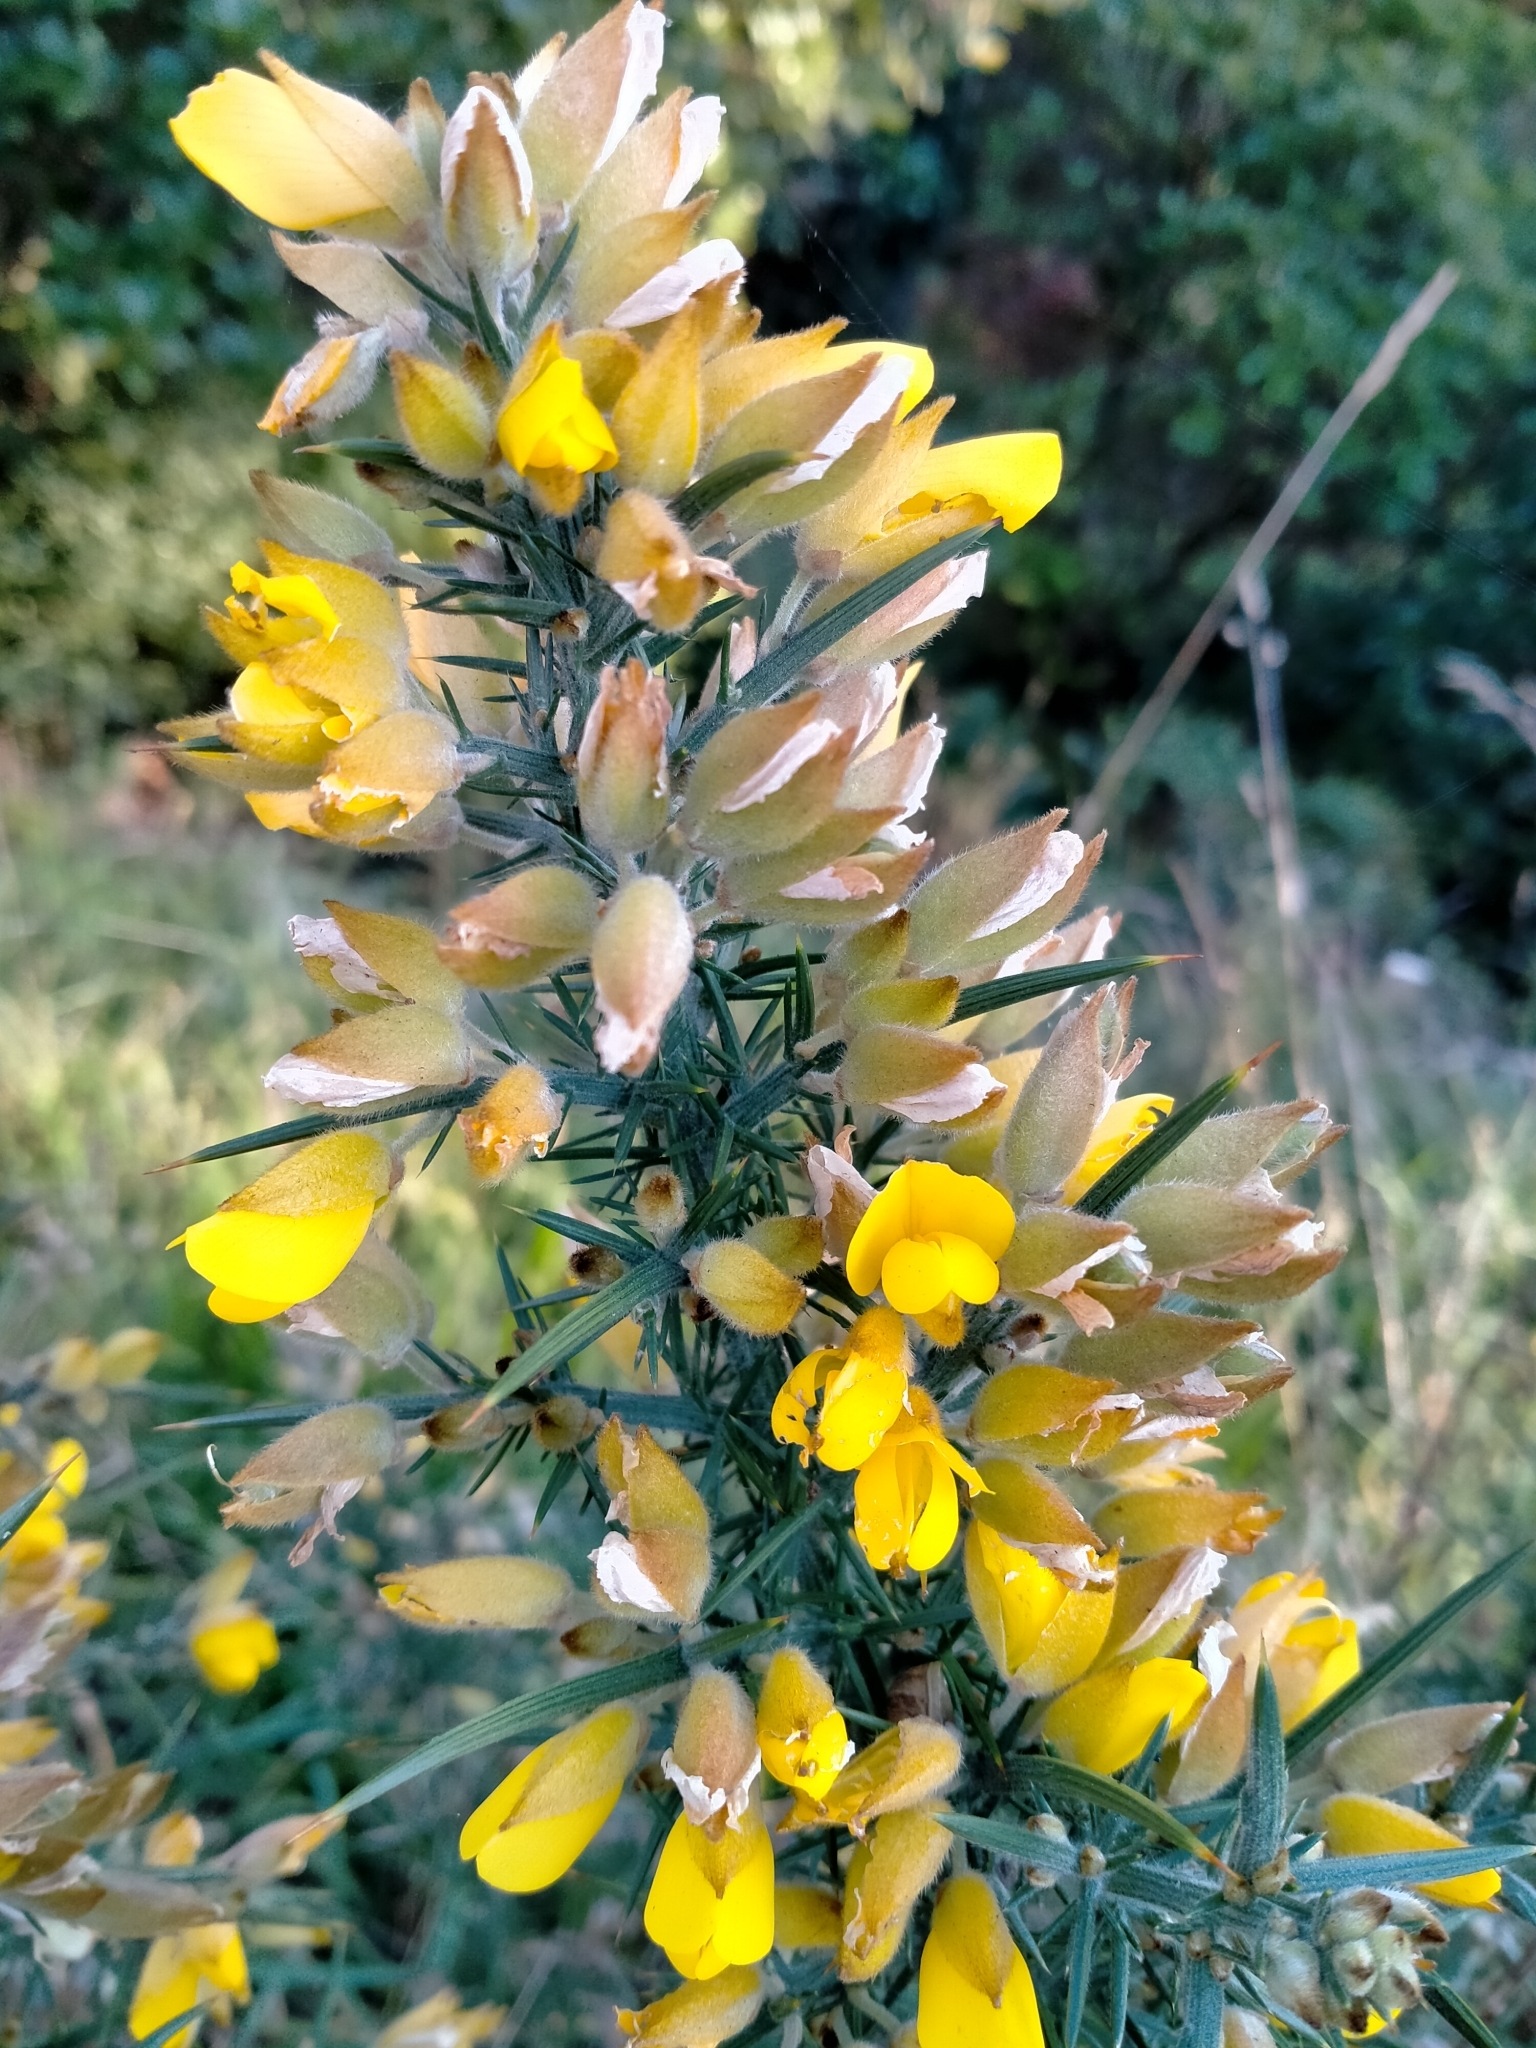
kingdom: Plantae
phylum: Tracheophyta
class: Magnoliopsida
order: Fabales
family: Fabaceae
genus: Ulex
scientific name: Ulex europaeus
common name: Common gorse
